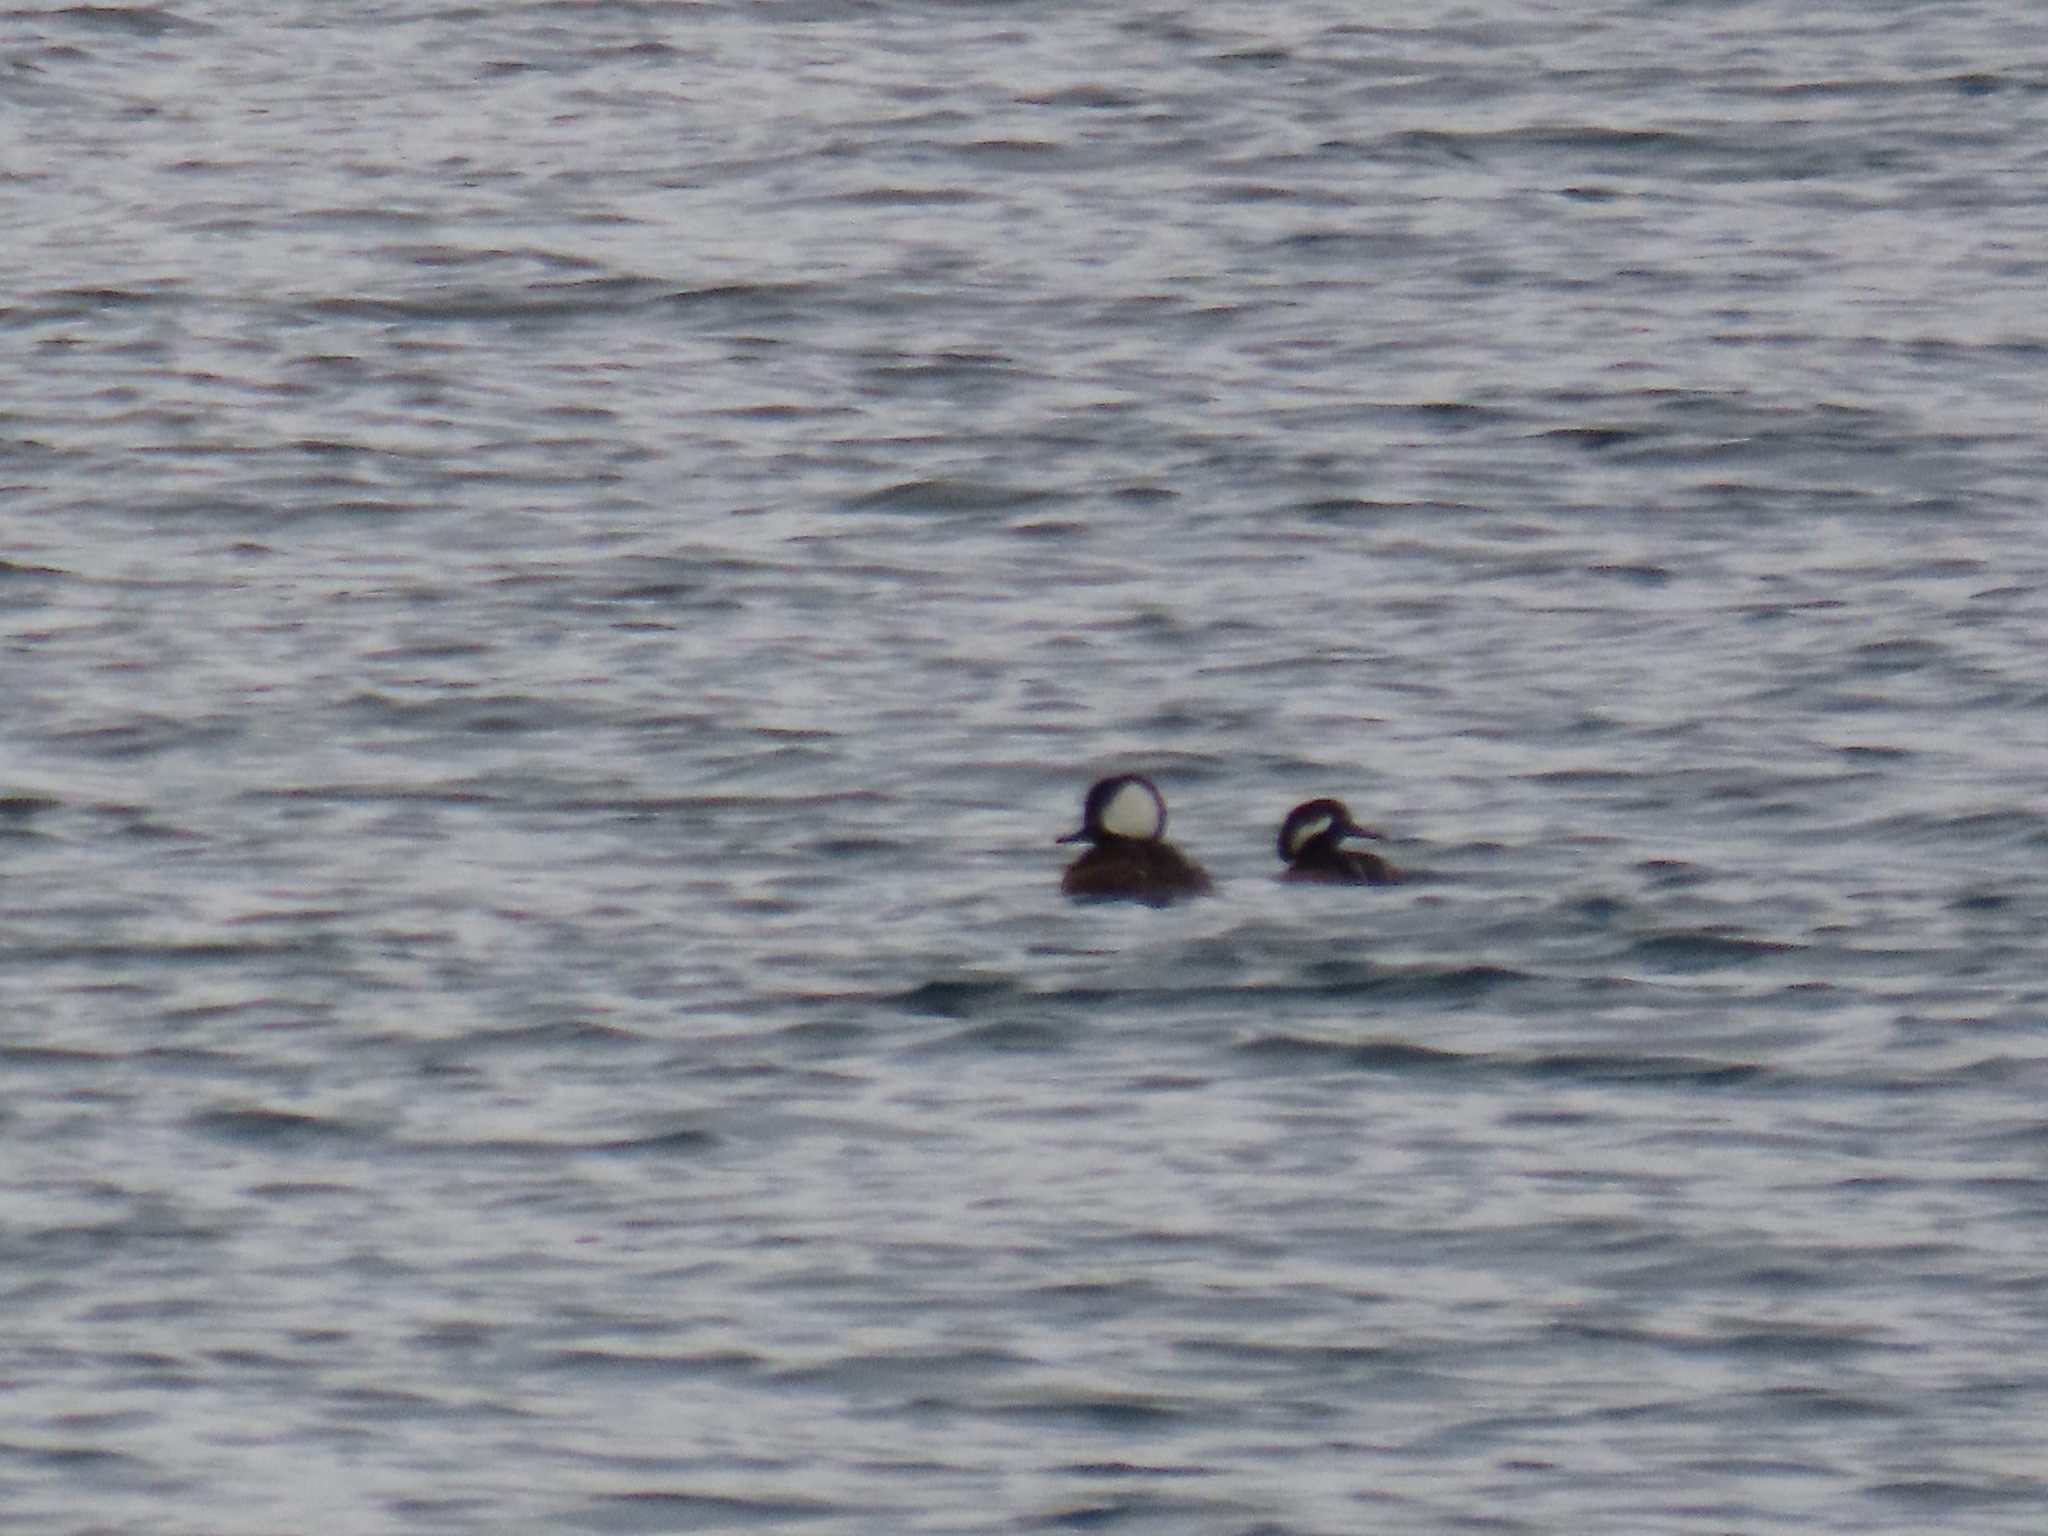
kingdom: Animalia
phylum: Chordata
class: Aves
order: Anseriformes
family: Anatidae
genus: Lophodytes
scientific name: Lophodytes cucullatus
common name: Hooded merganser
